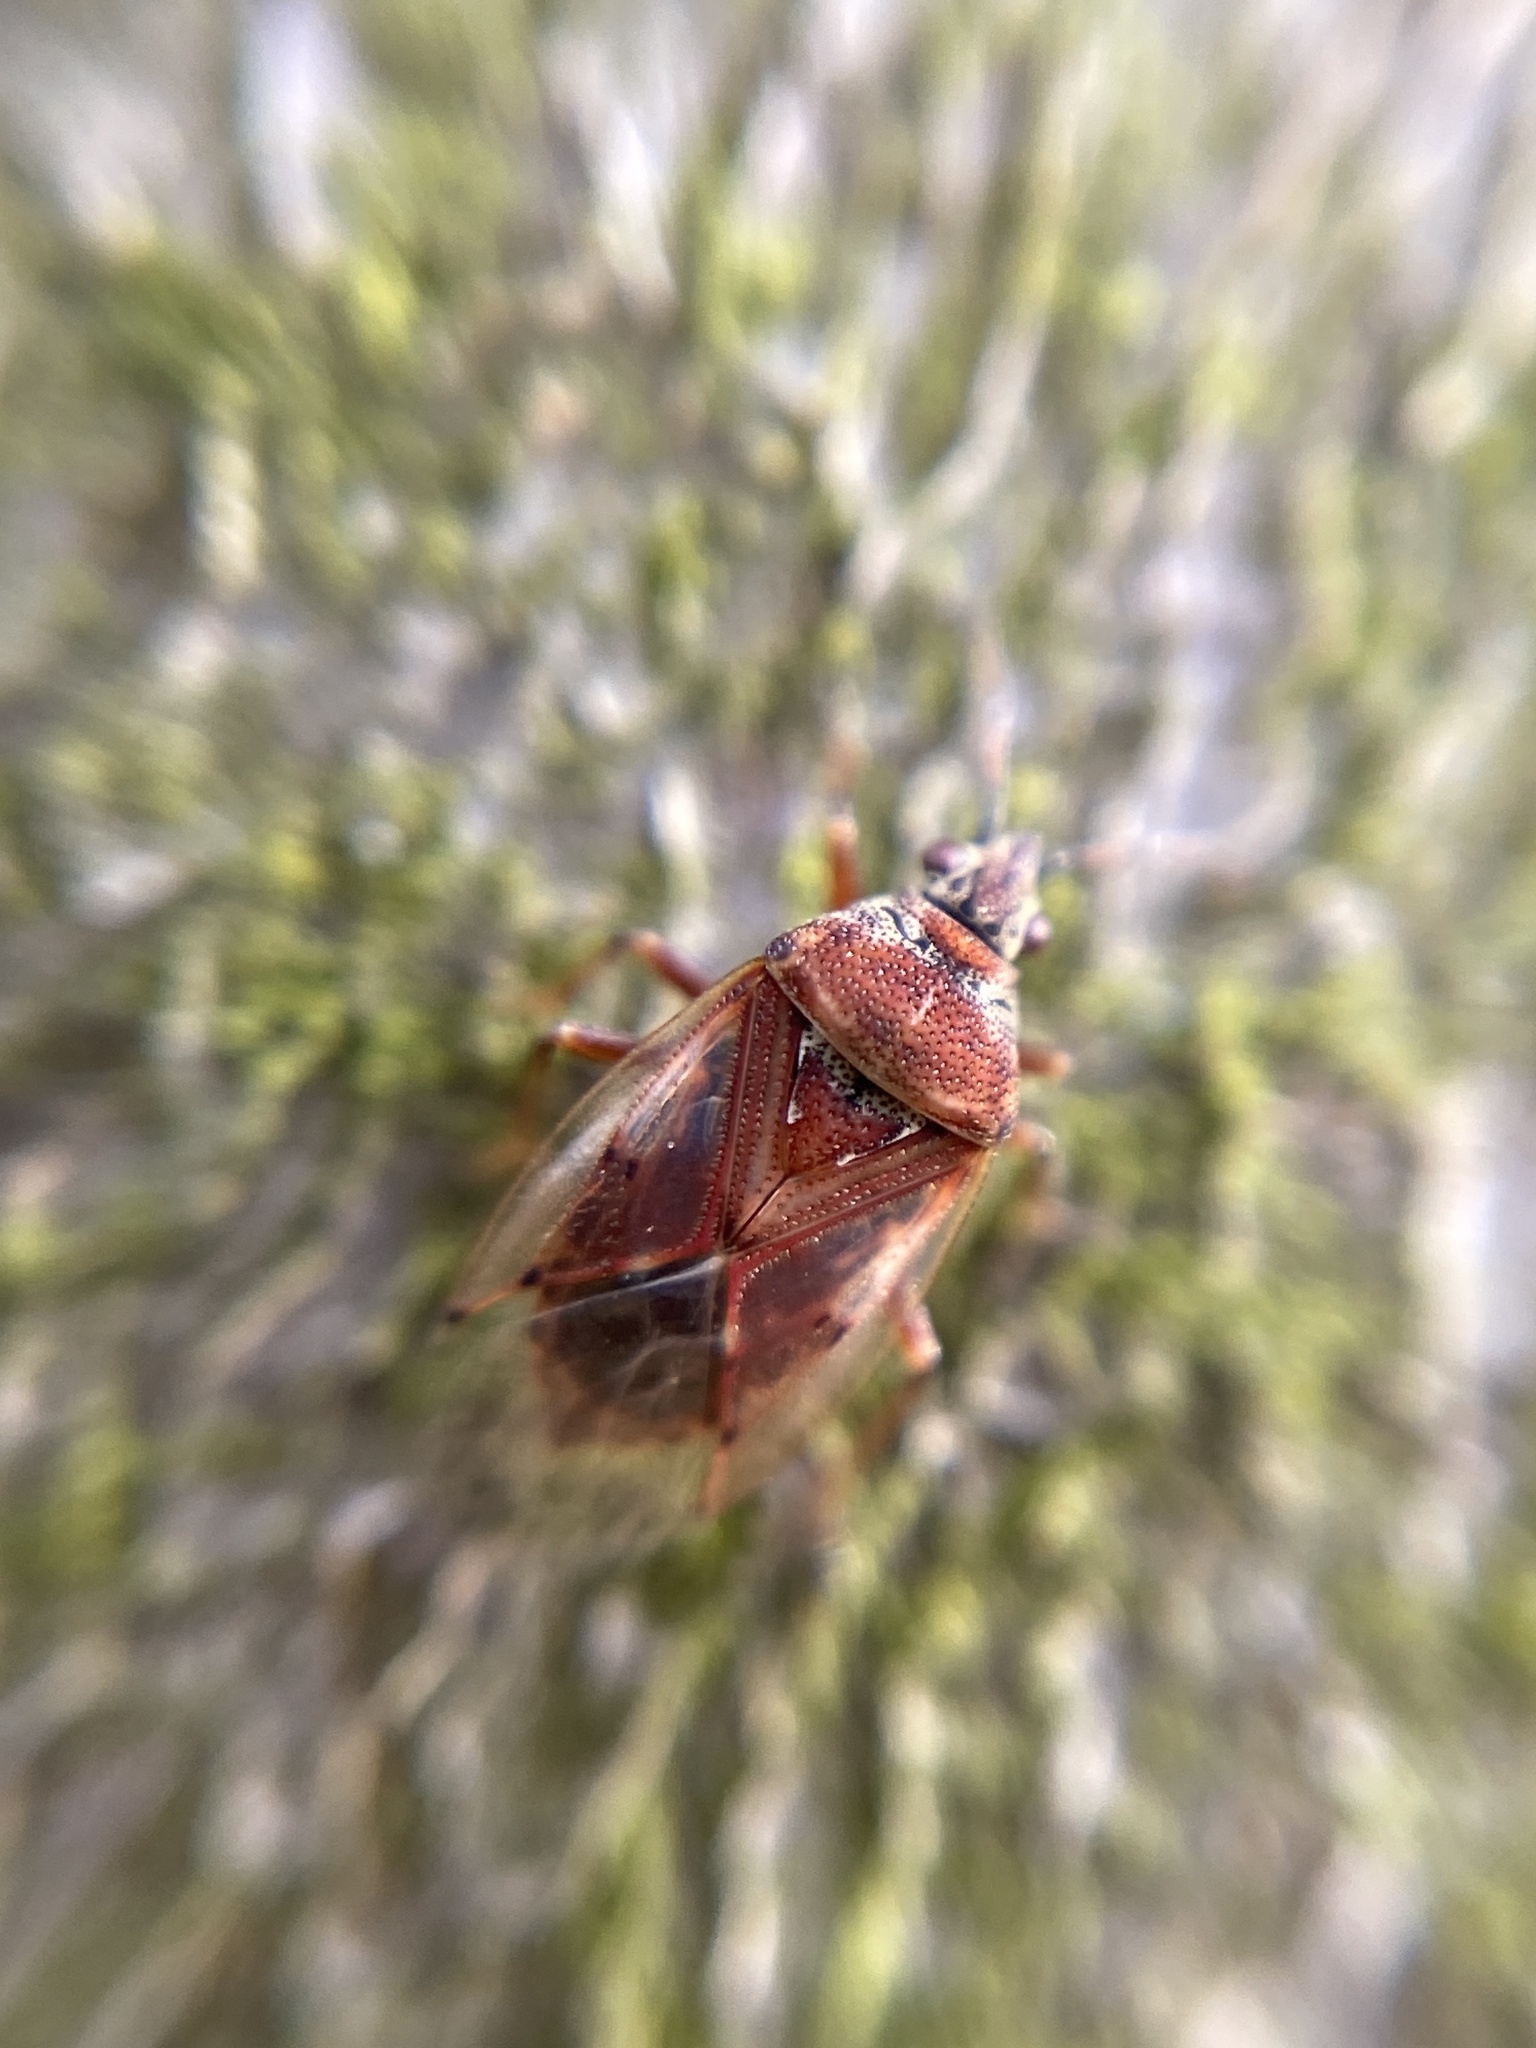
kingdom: Animalia
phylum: Arthropoda
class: Insecta
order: Hemiptera
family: Lygaeidae
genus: Kleidocerys
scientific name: Kleidocerys resedae
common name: Birch catkin bug
